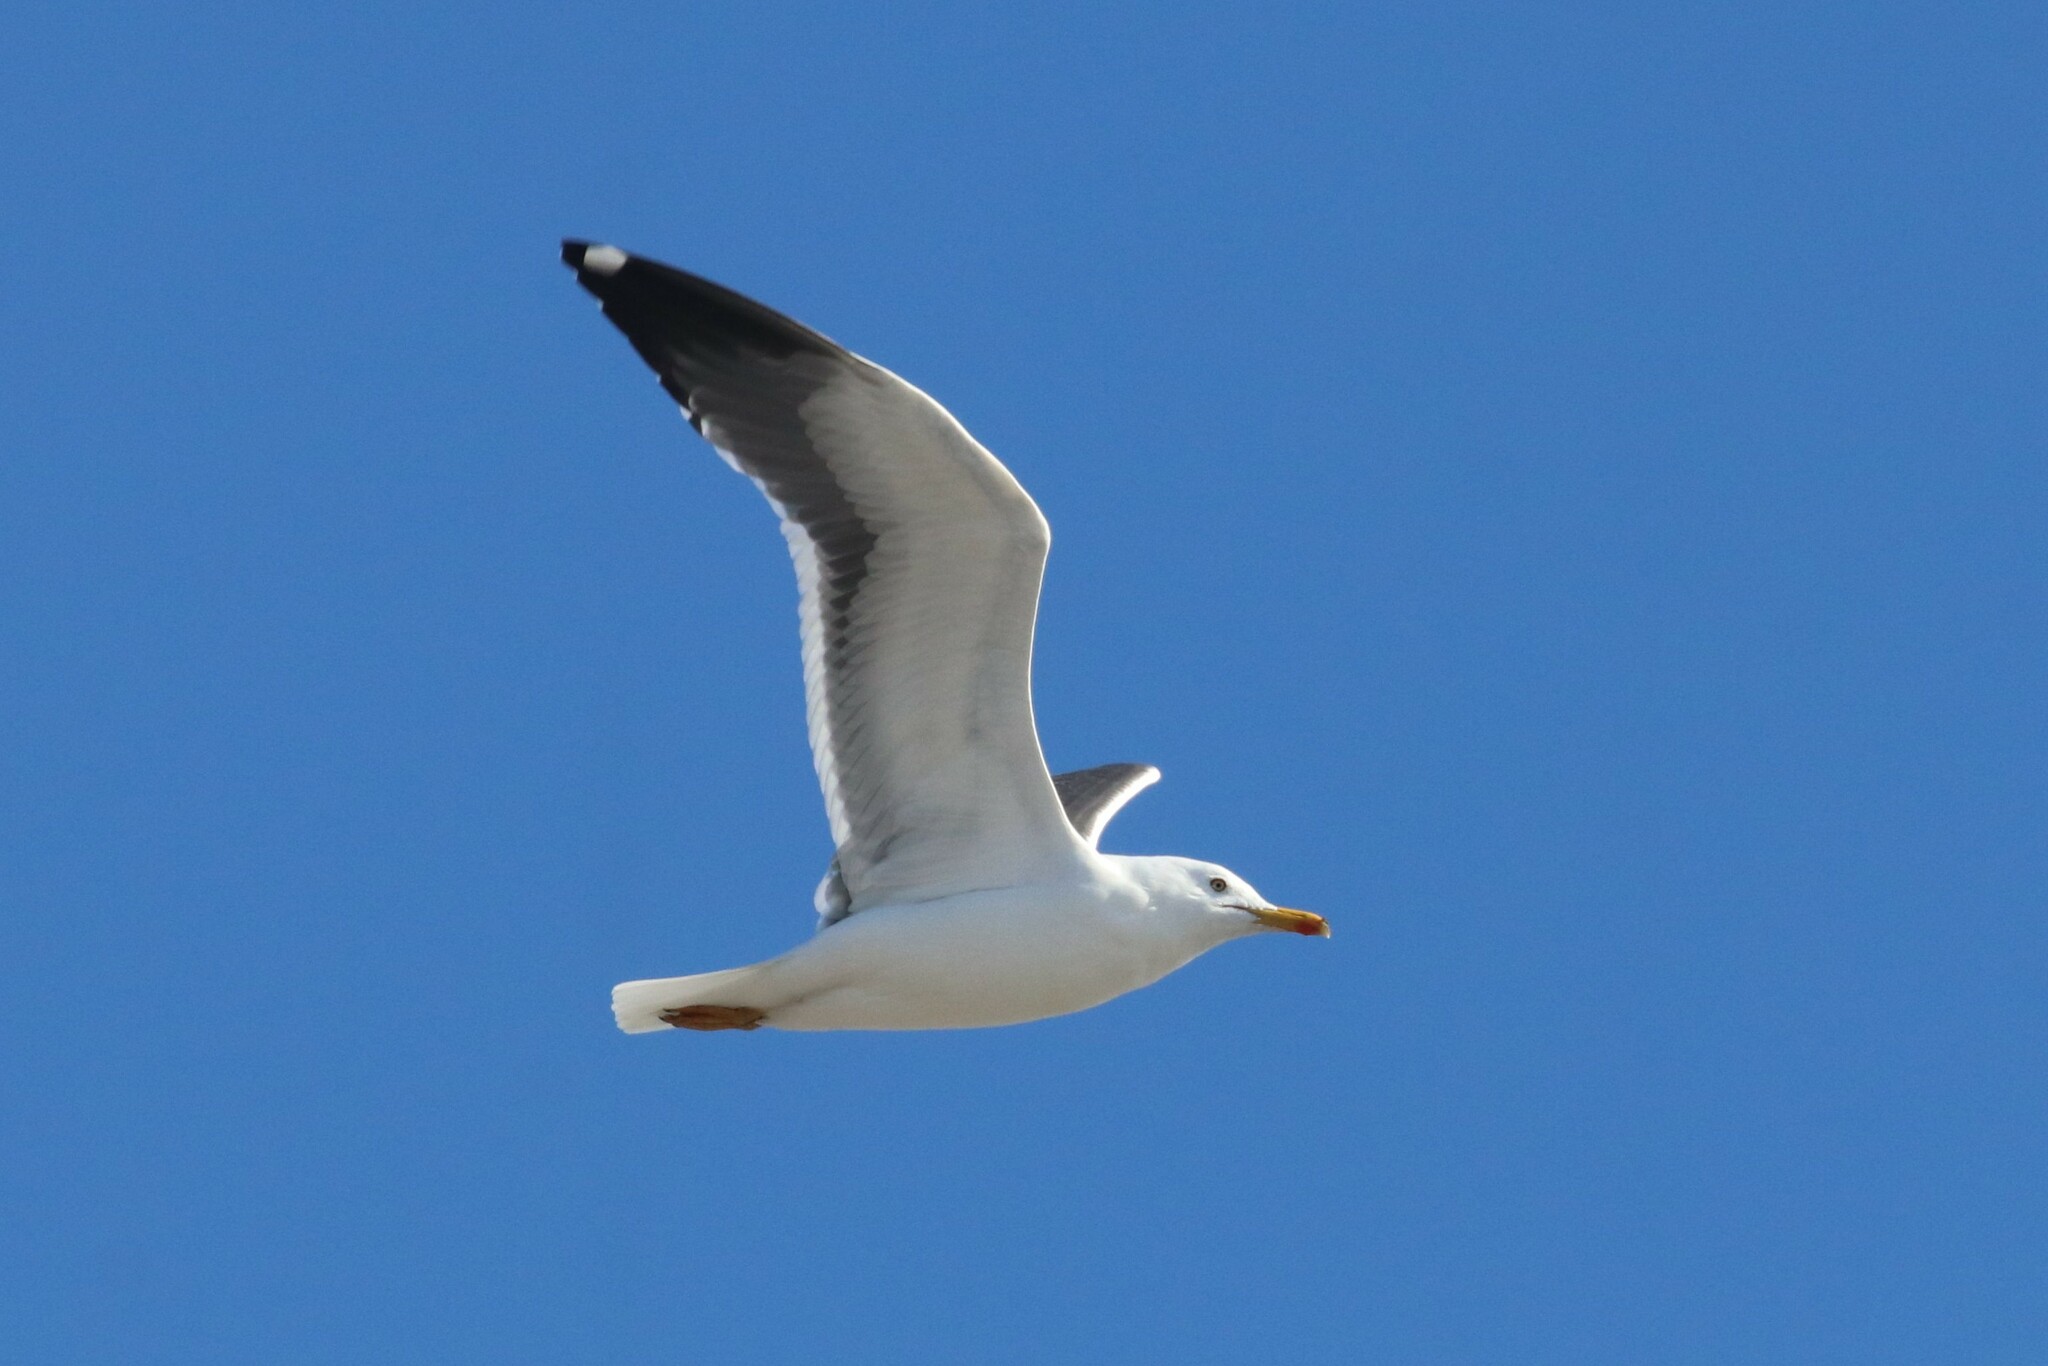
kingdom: Animalia
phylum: Chordata
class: Aves
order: Charadriiformes
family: Laridae
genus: Larus
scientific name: Larus fuscus
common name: Lesser black-backed gull
